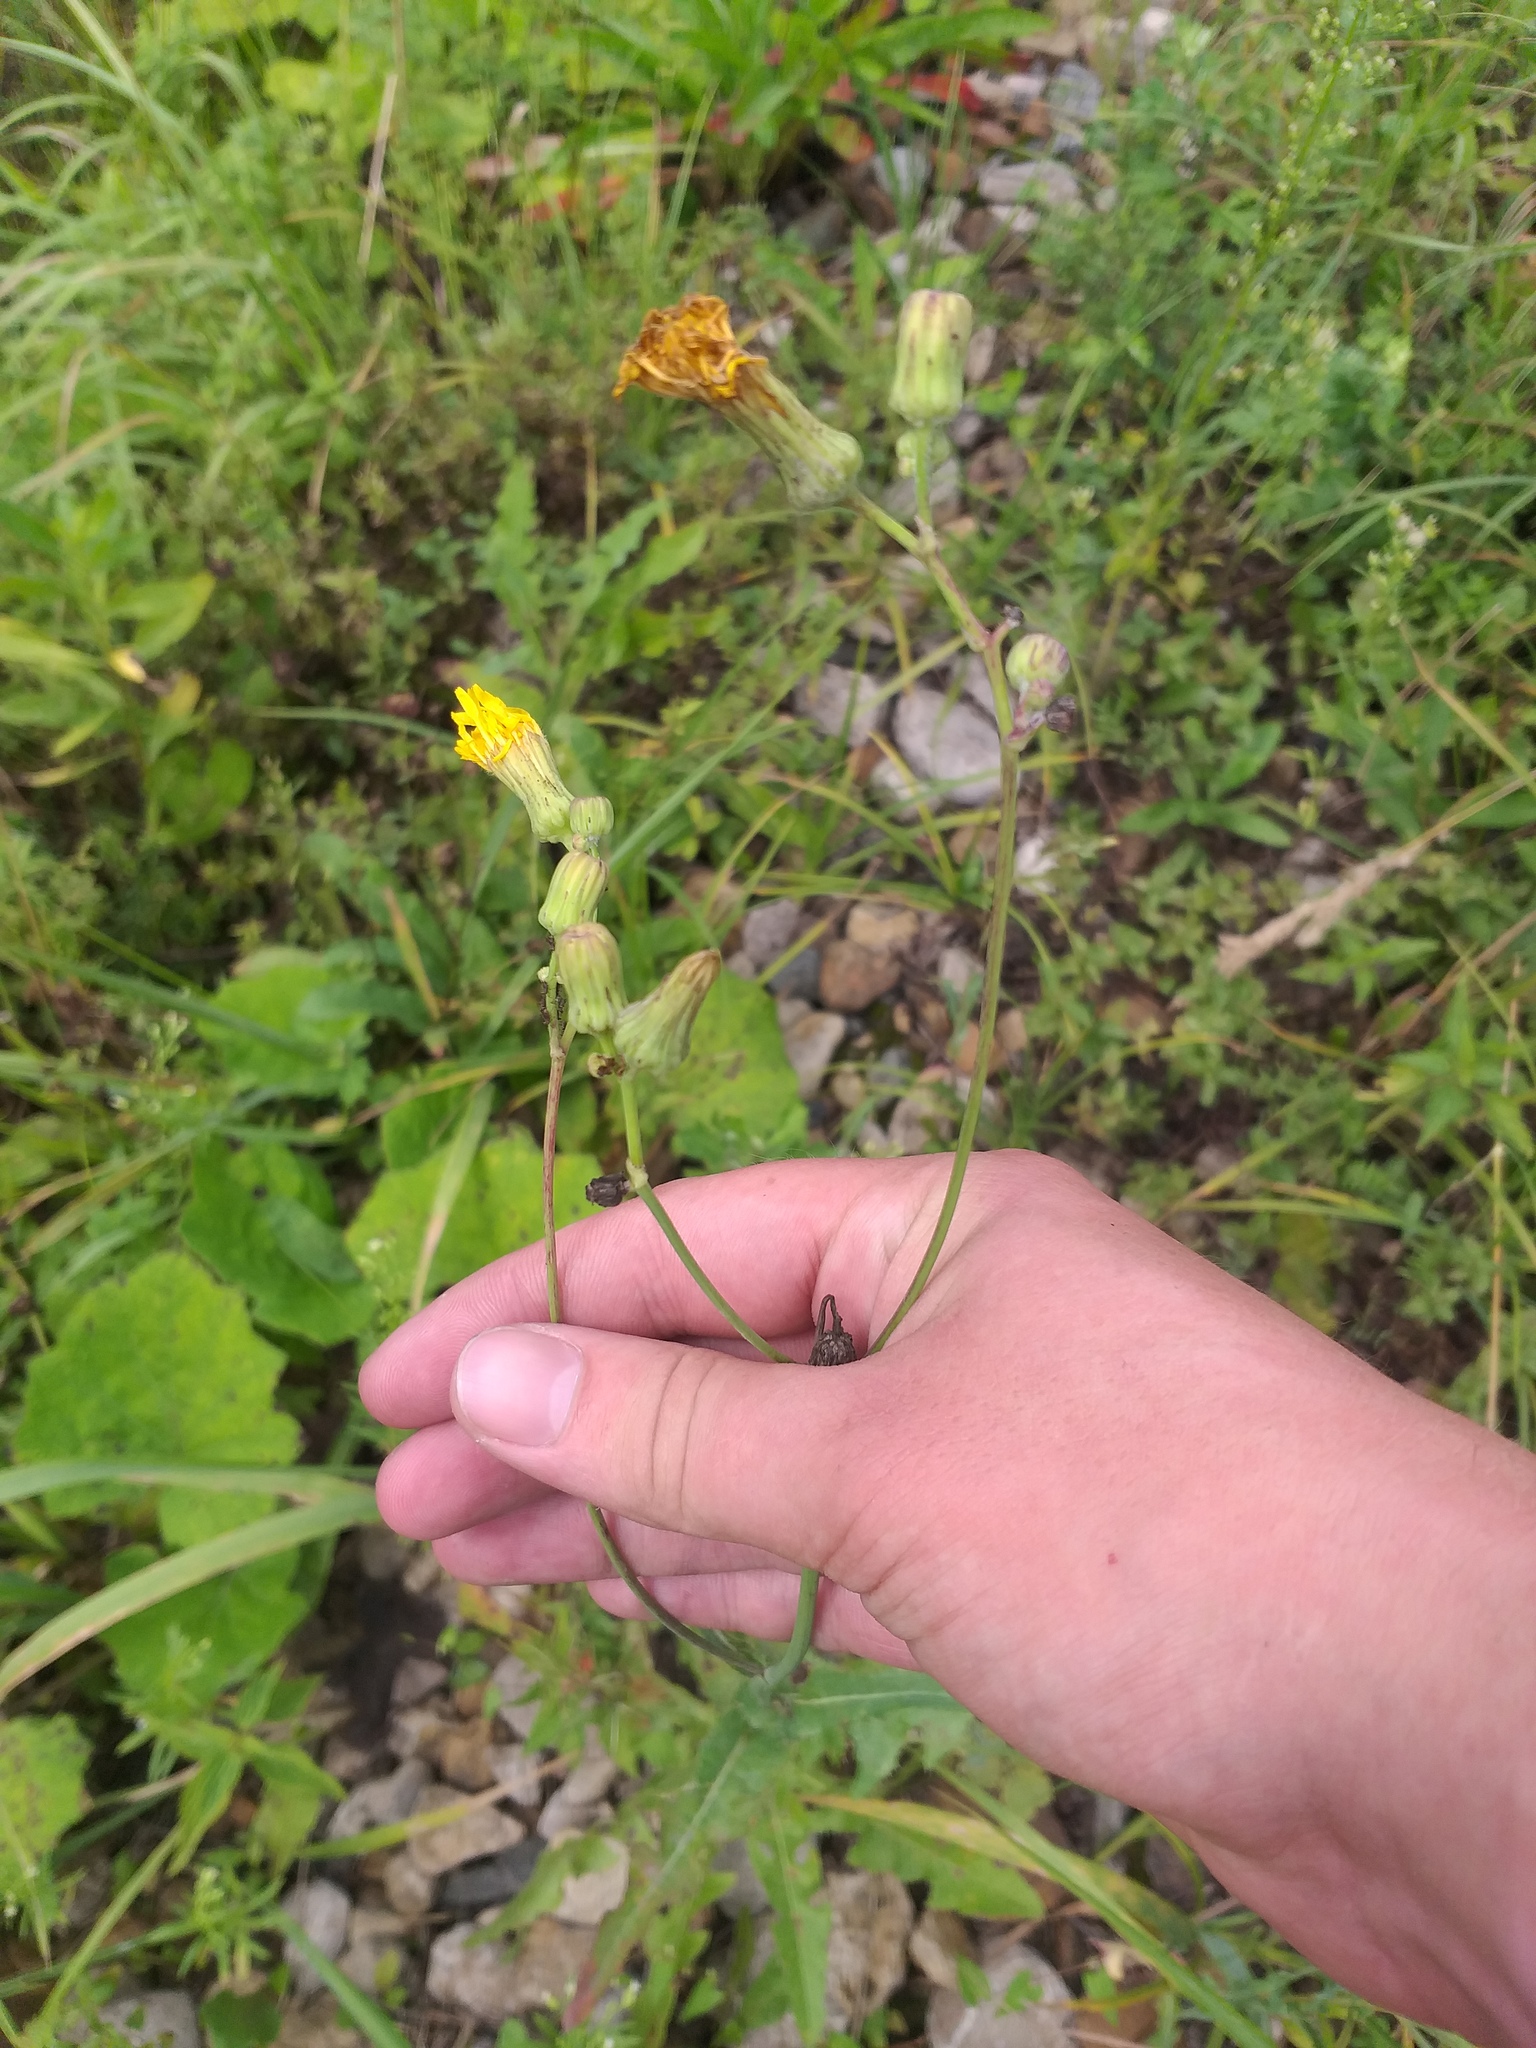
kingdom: Plantae
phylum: Tracheophyta
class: Magnoliopsida
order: Asterales
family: Asteraceae
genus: Sonchus
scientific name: Sonchus arvensis
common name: Perennial sow-thistle
